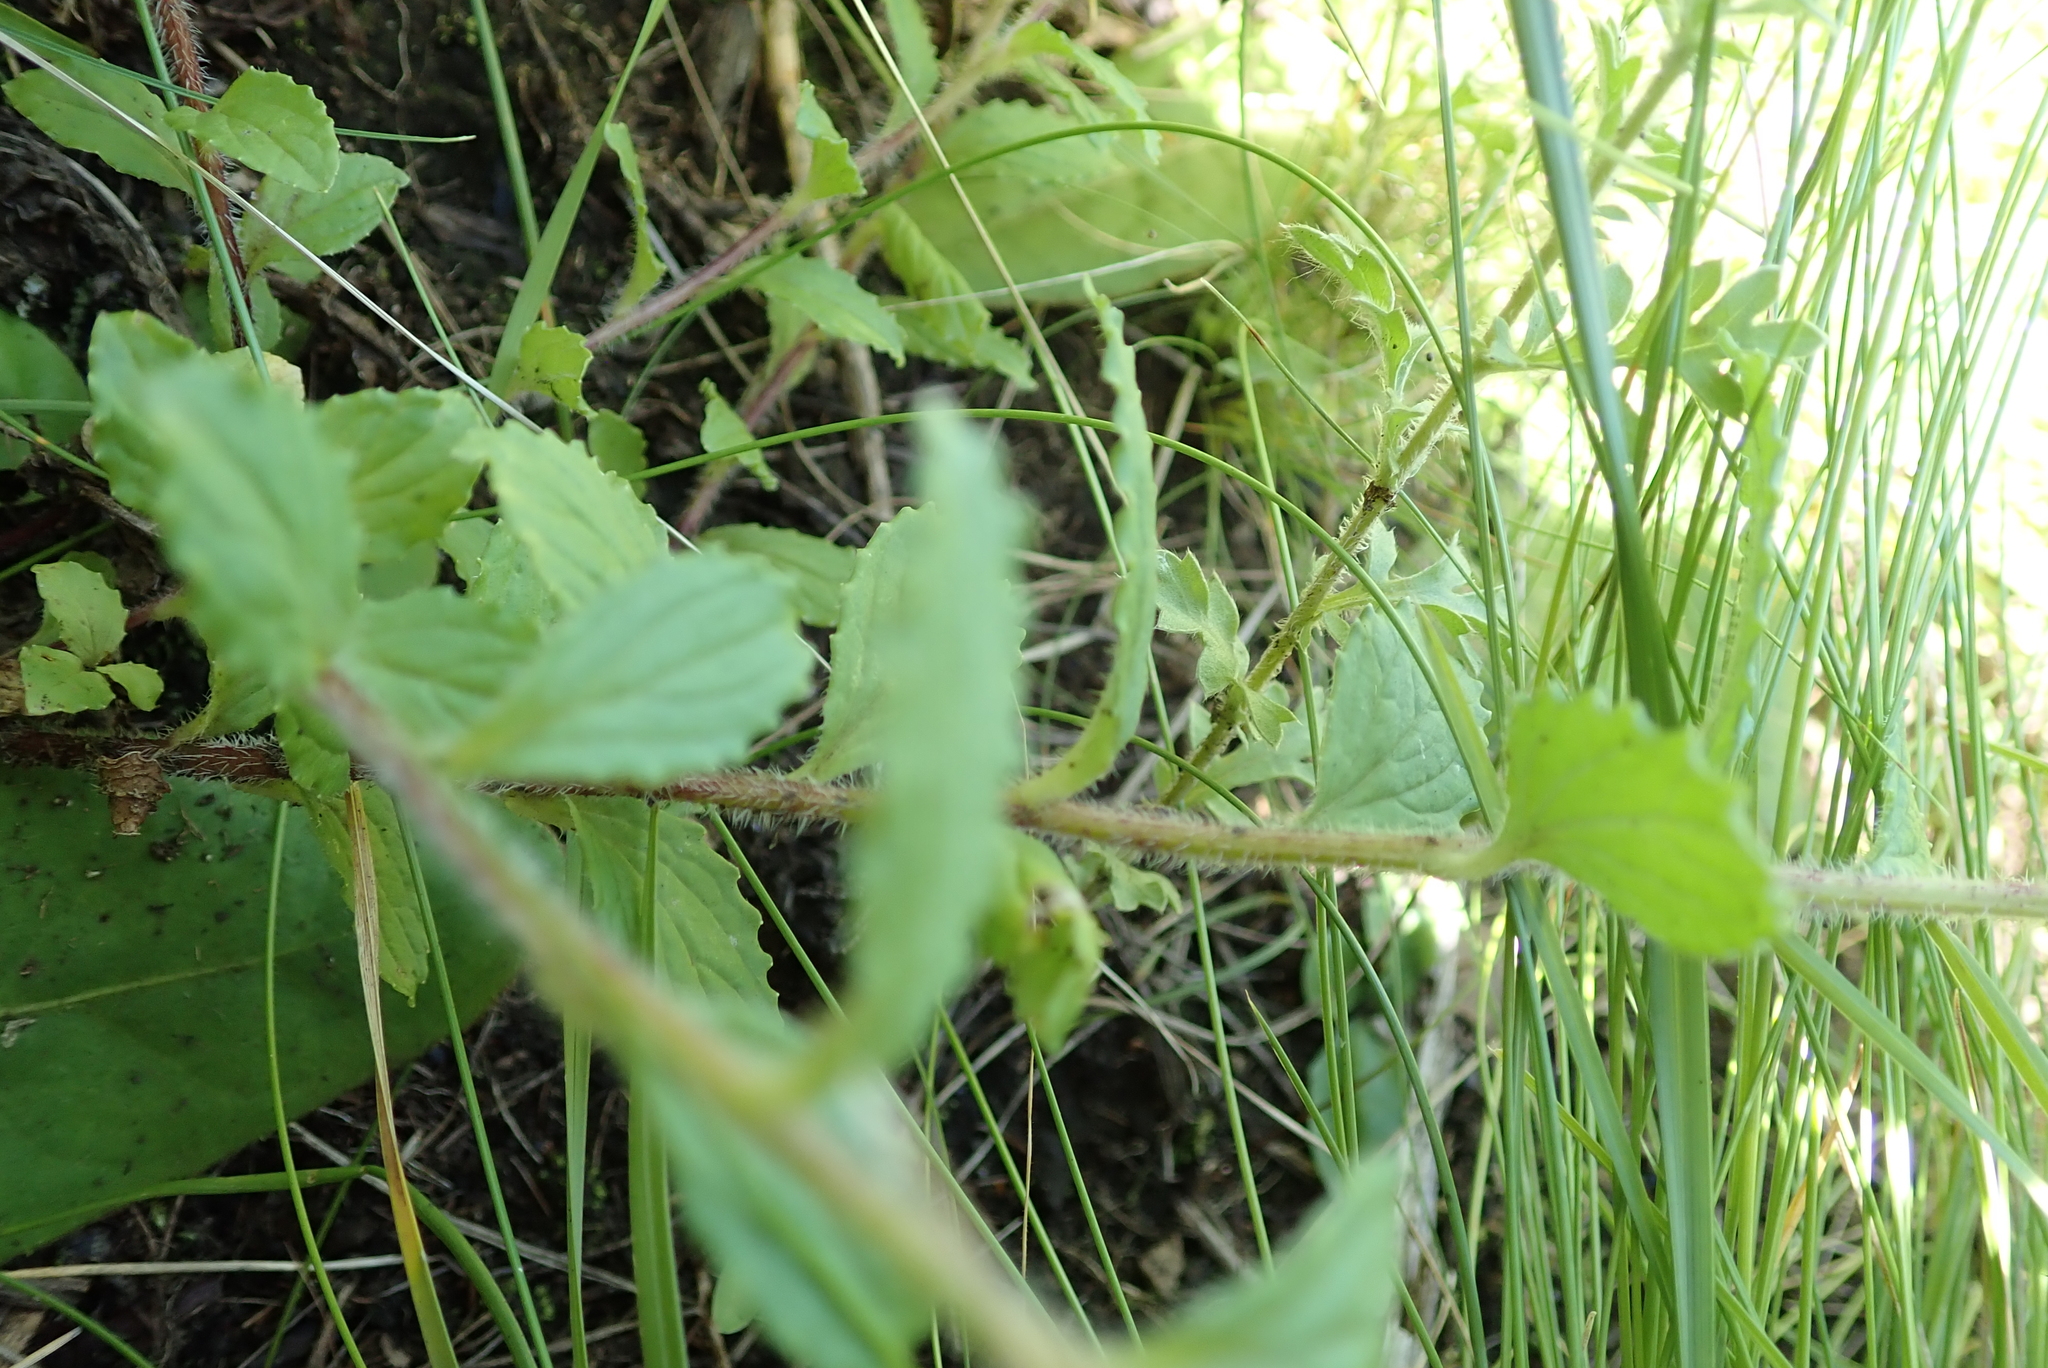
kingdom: Plantae
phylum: Tracheophyta
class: Magnoliopsida
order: Asterales
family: Campanulaceae
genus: Wahlenbergia
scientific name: Wahlenbergia pulvillus-gigantis
